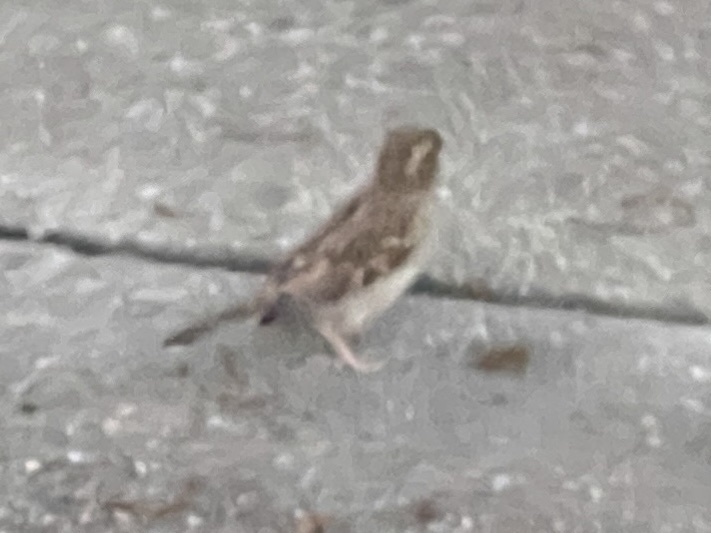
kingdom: Animalia
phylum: Chordata
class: Aves
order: Passeriformes
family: Passeridae
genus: Passer
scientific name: Passer domesticus
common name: House sparrow
